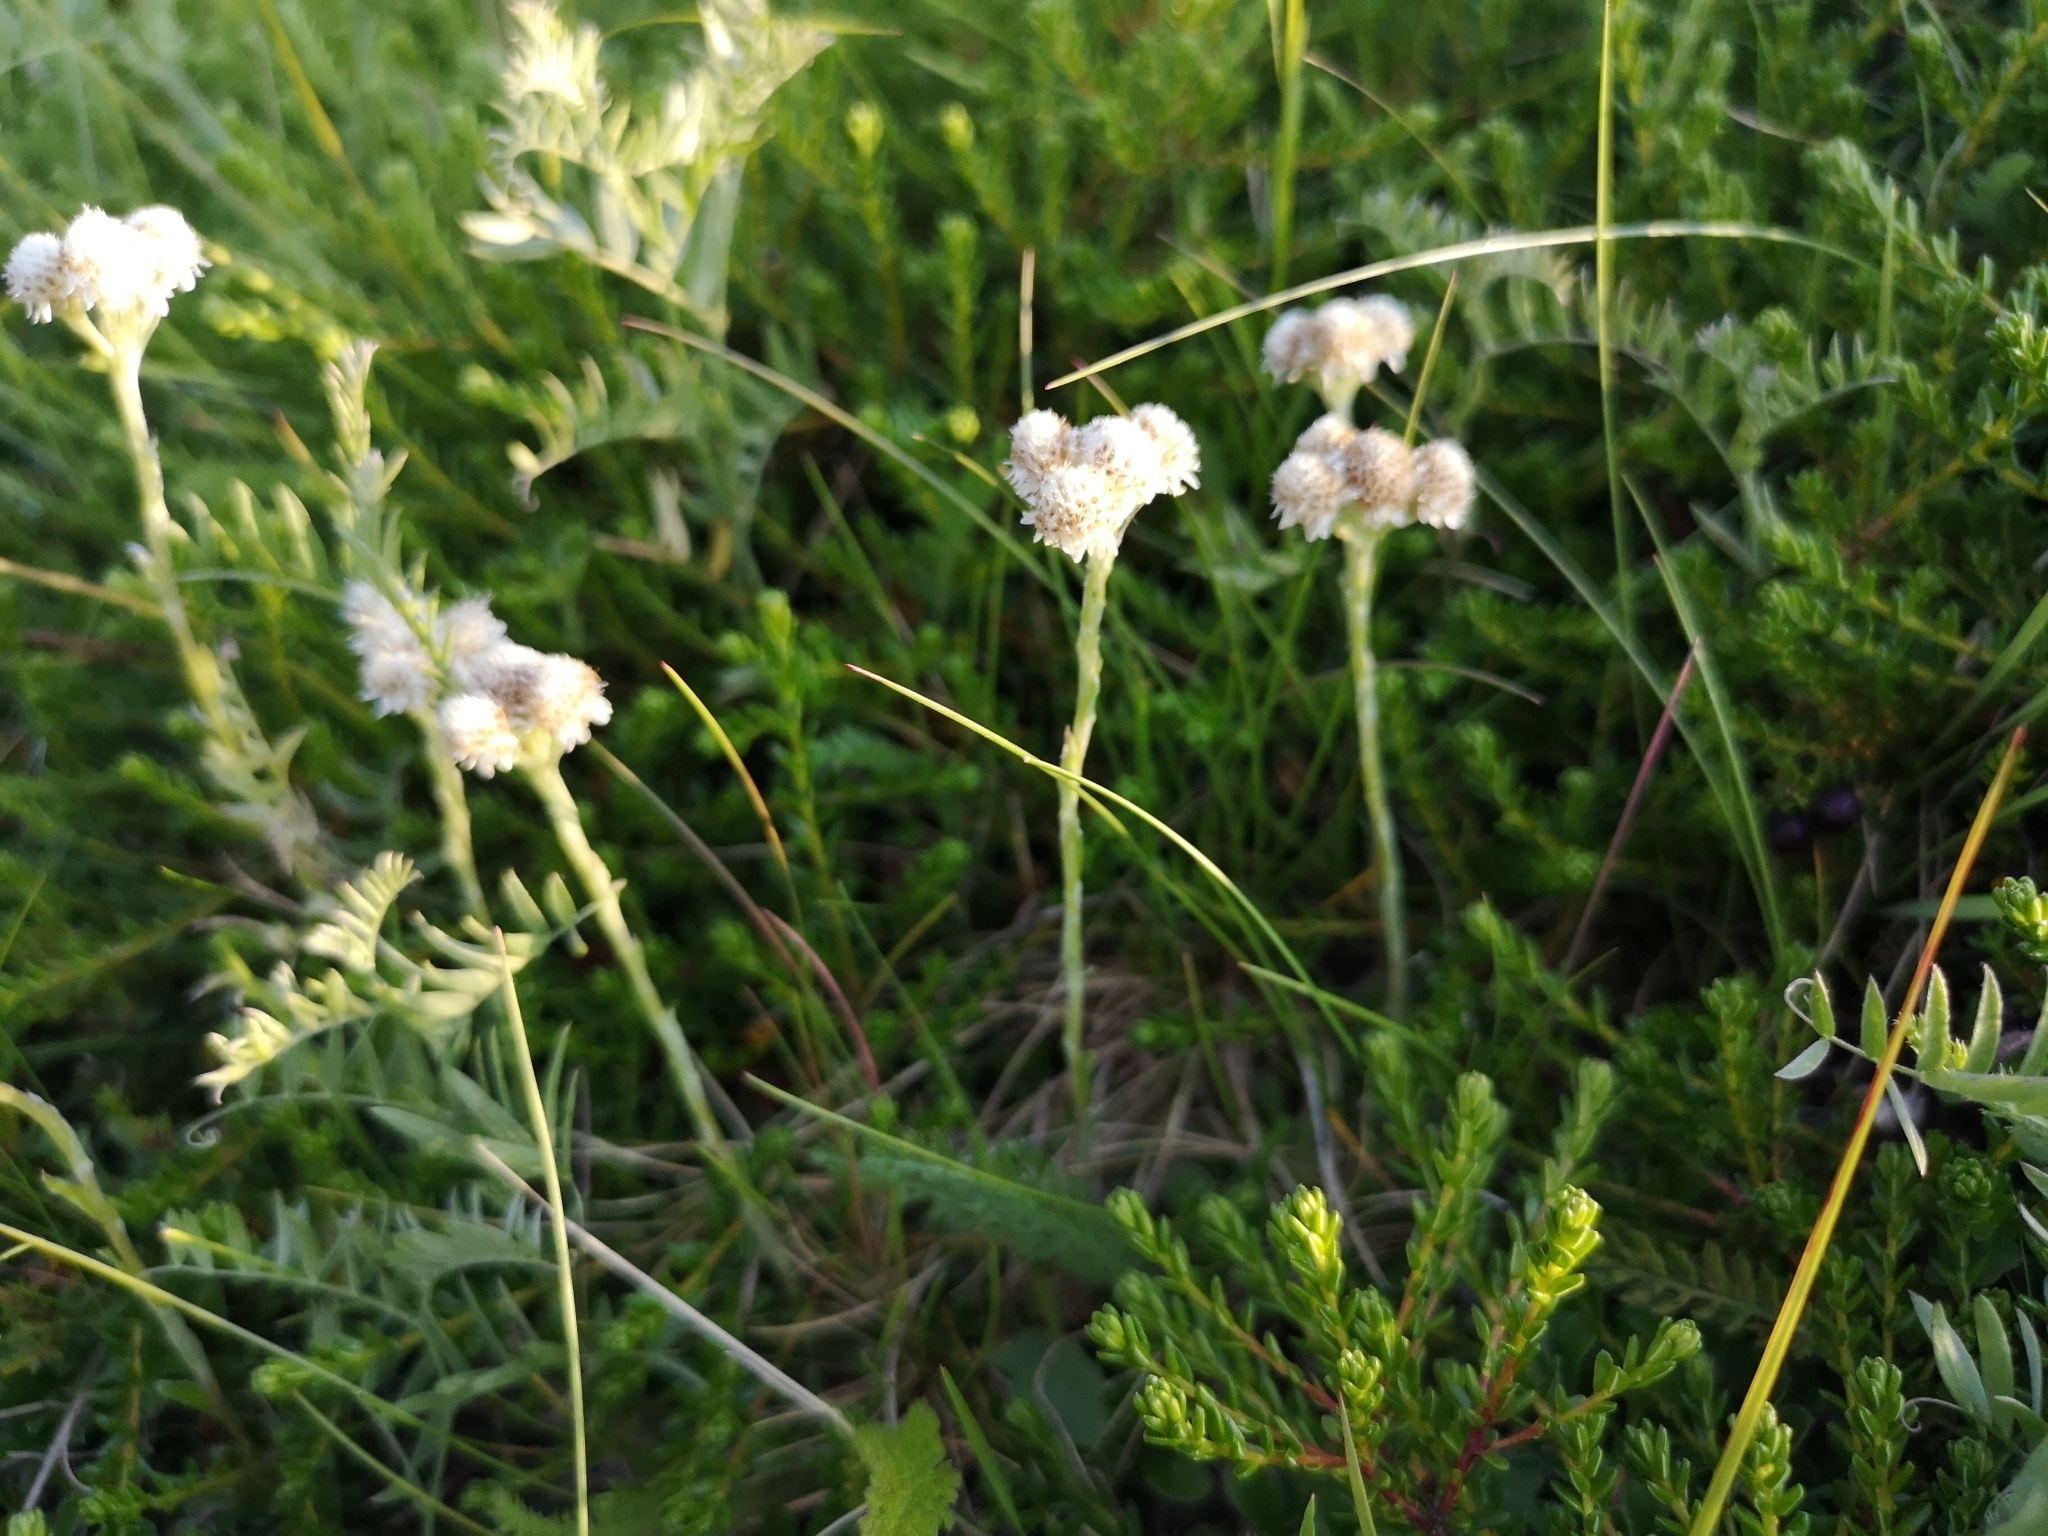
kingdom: Plantae
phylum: Tracheophyta
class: Magnoliopsida
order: Asterales
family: Asteraceae
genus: Antennaria
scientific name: Antennaria dioica
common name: Mountain everlasting
